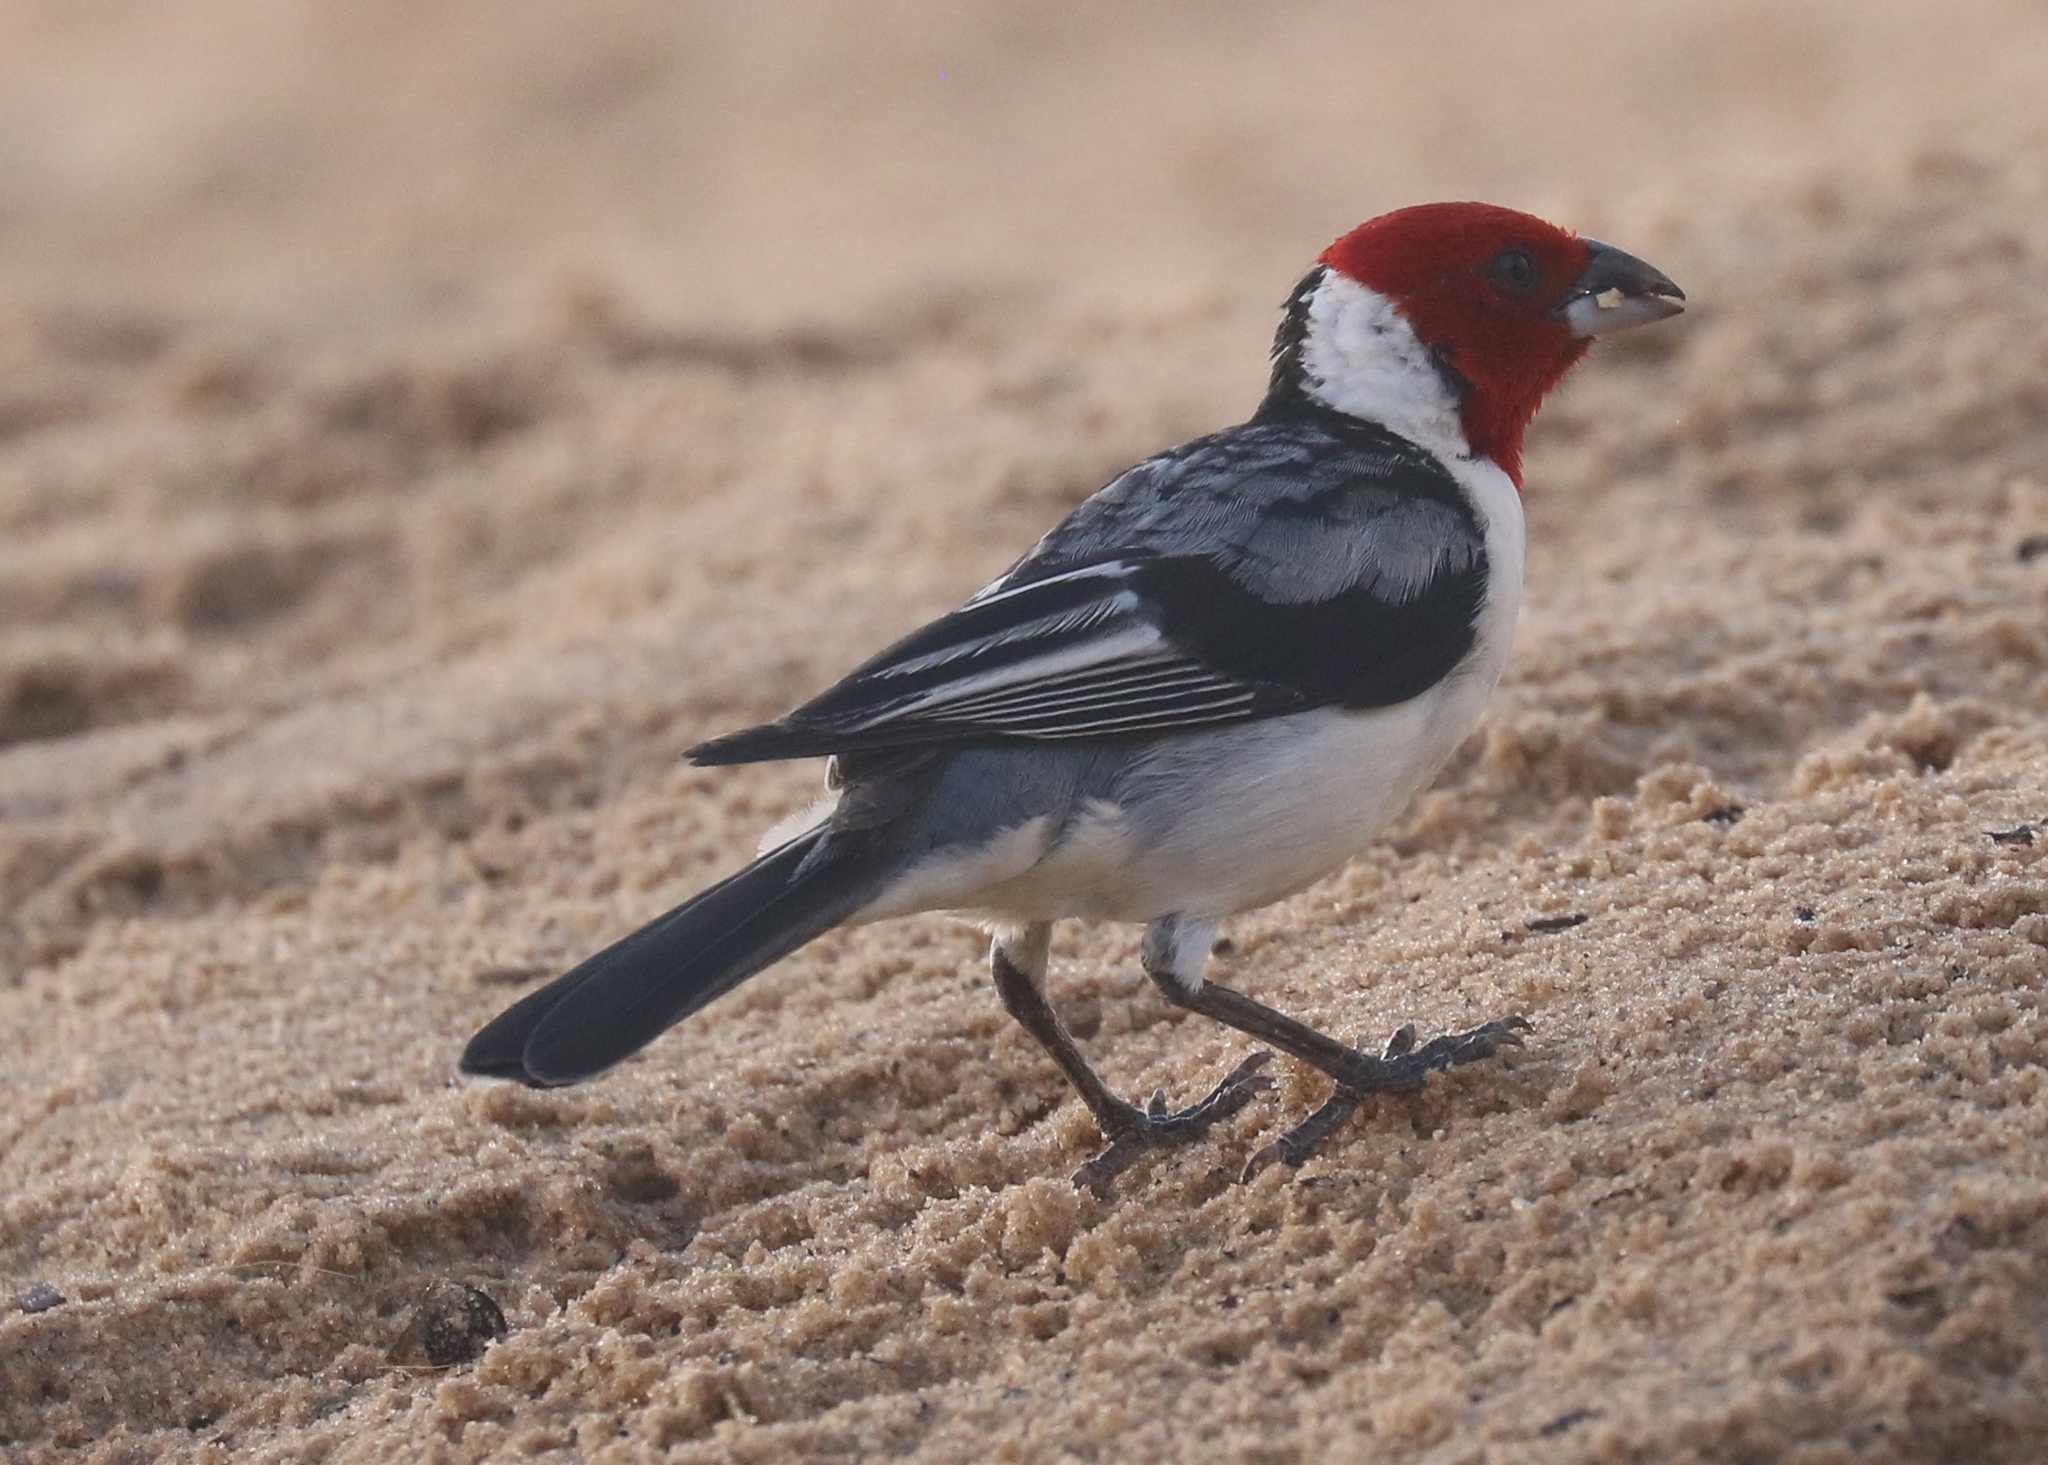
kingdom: Animalia
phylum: Chordata
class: Aves
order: Passeriformes
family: Thraupidae
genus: Paroaria
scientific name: Paroaria dominicana
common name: Red-cowled cardinal
